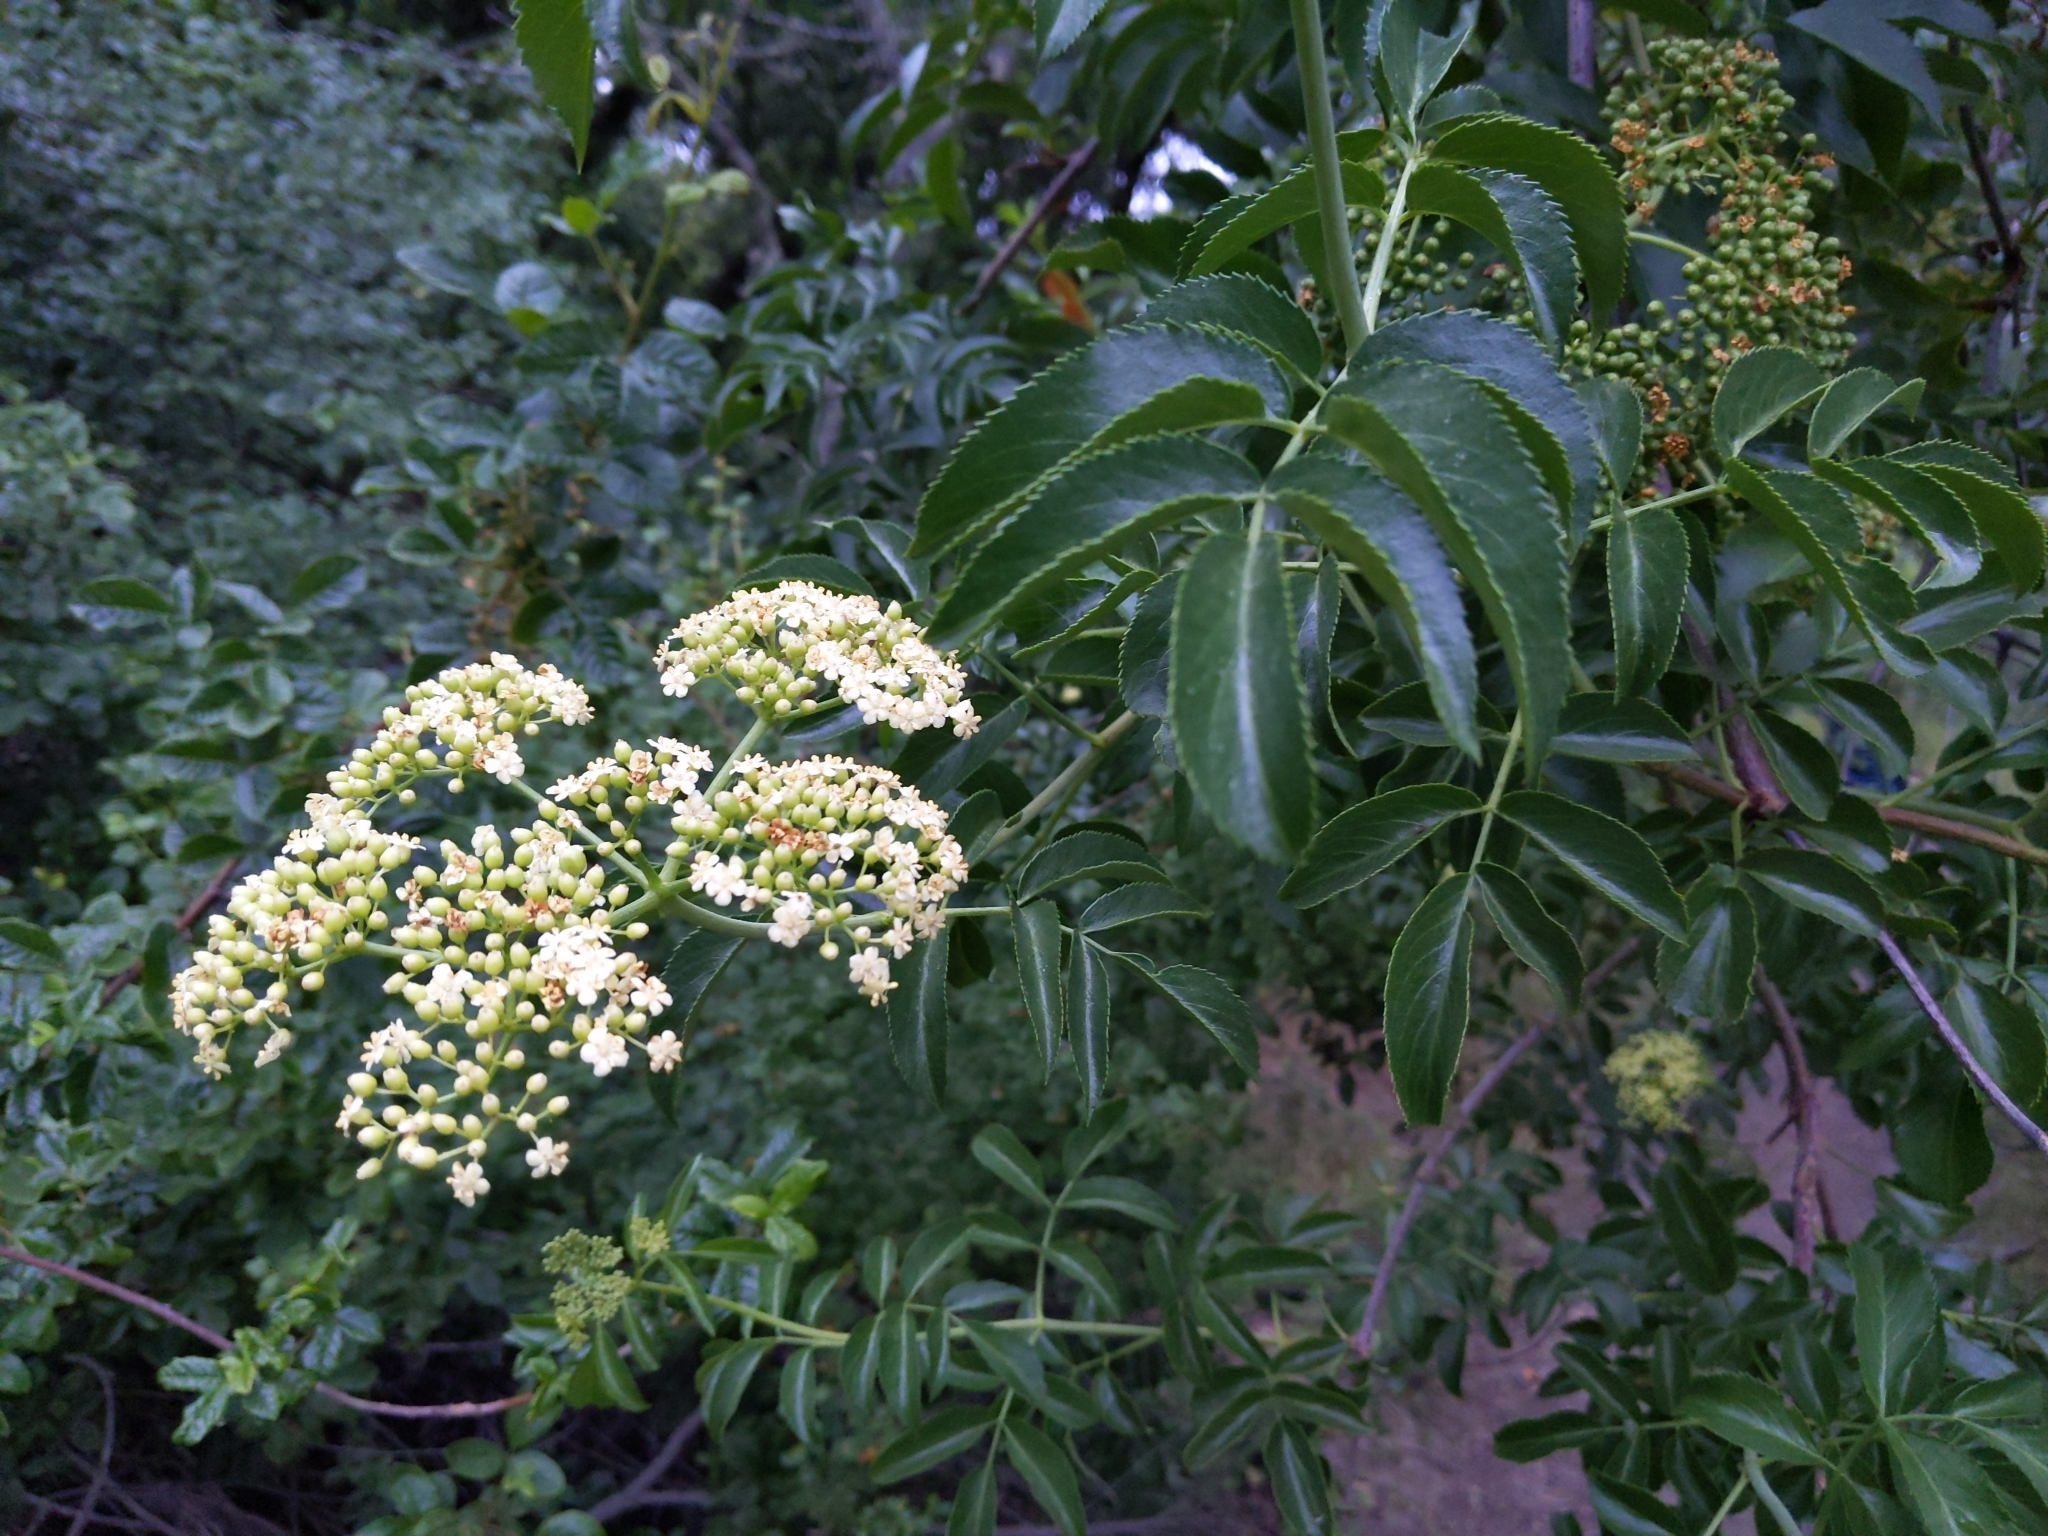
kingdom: Plantae
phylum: Tracheophyta
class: Magnoliopsida
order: Dipsacales
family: Viburnaceae
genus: Sambucus
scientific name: Sambucus cerulea
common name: Blue elder
